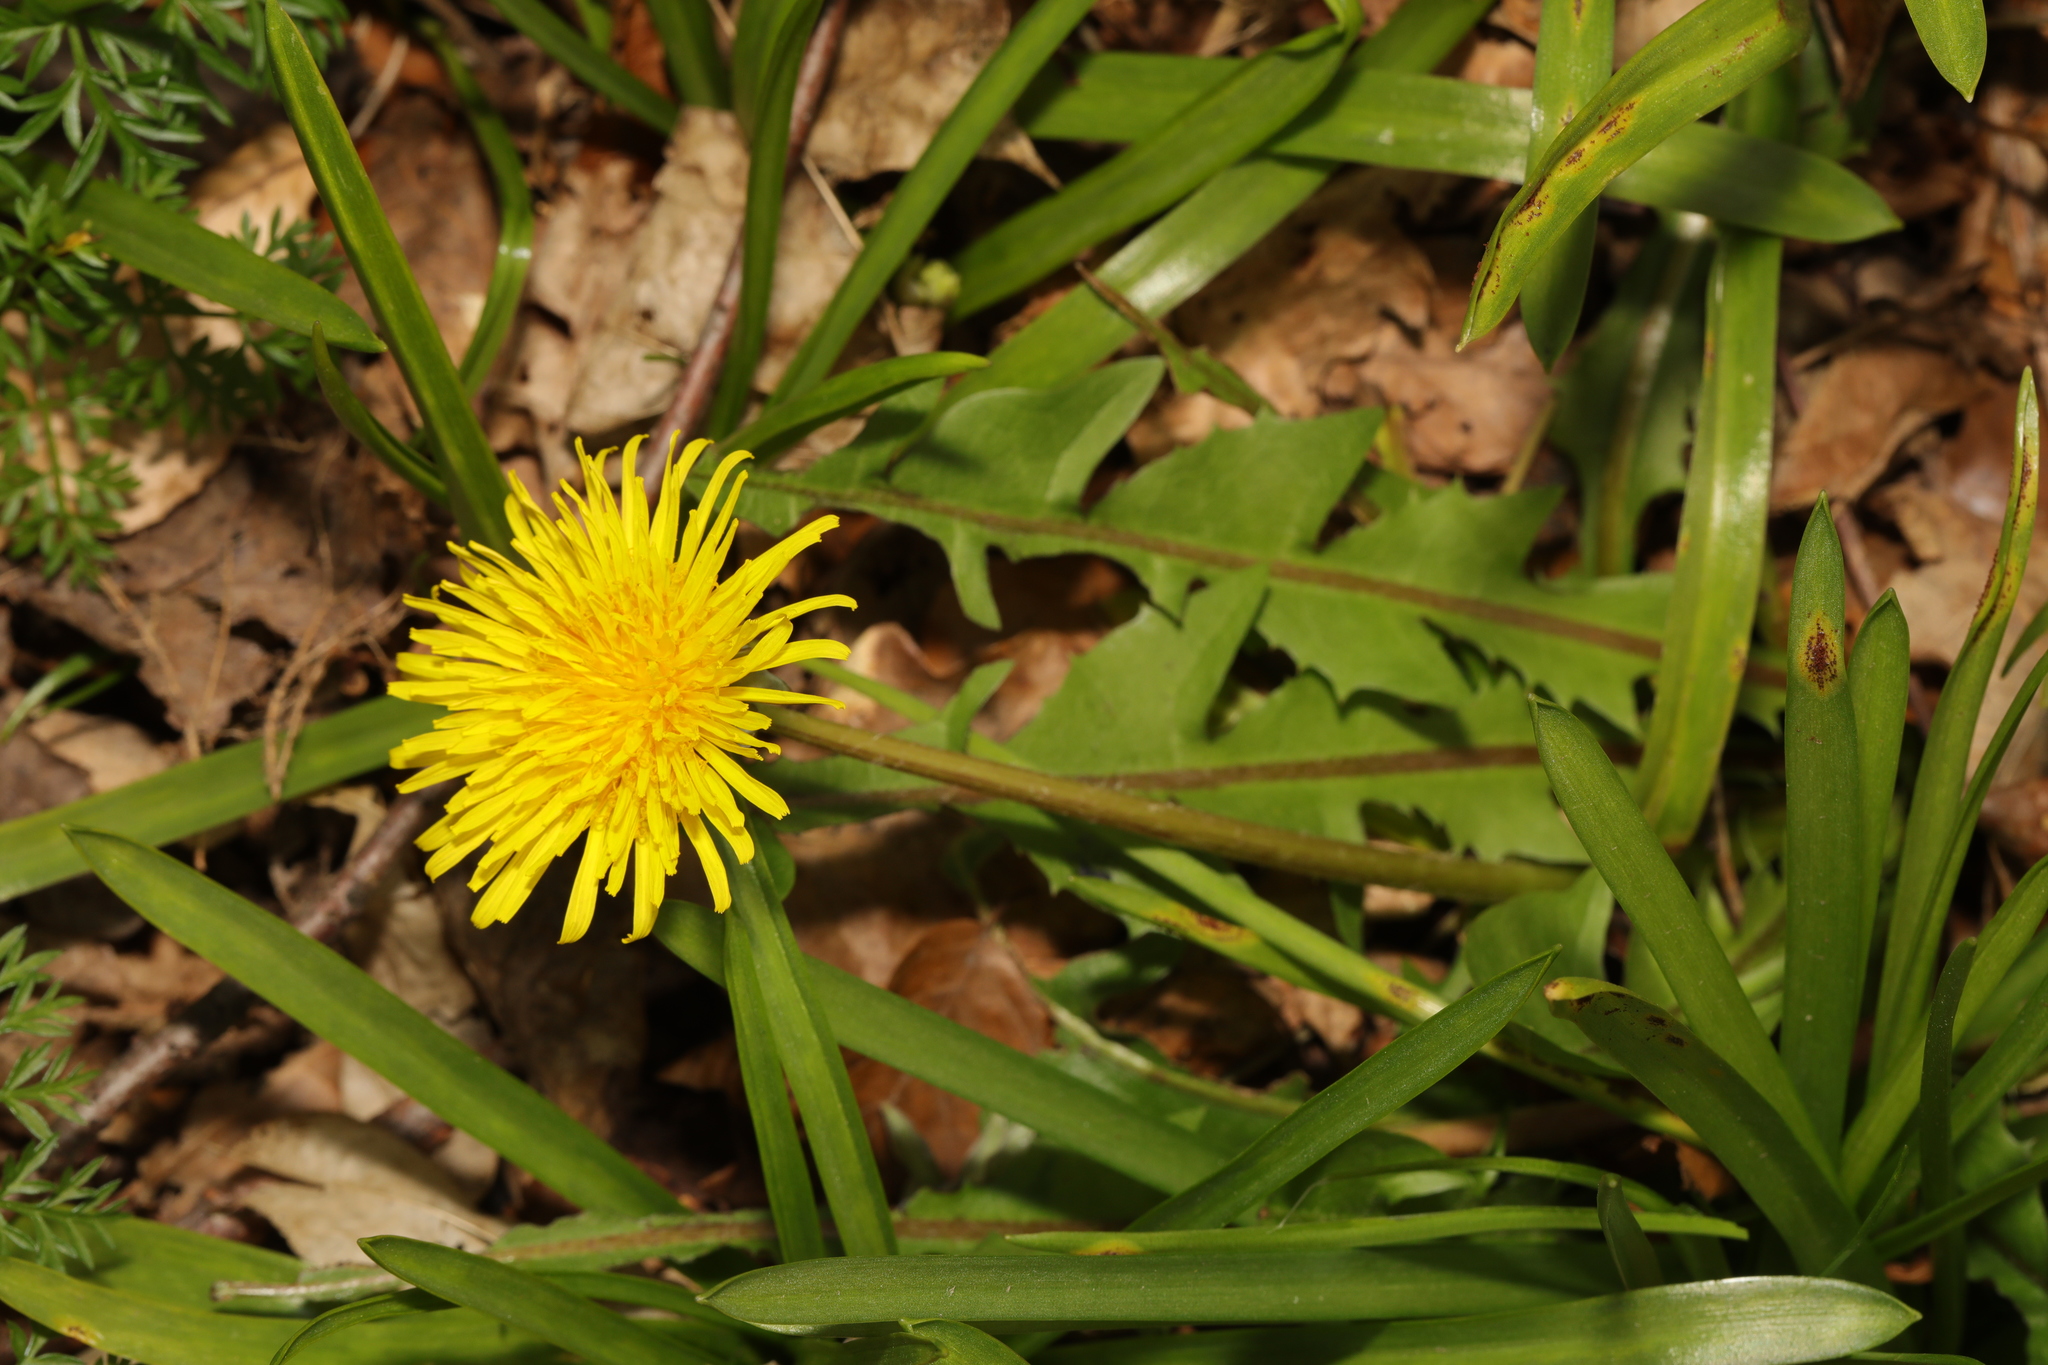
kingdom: Plantae
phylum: Tracheophyta
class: Magnoliopsida
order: Asterales
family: Asteraceae
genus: Taraxacum
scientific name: Taraxacum officinale
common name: Common dandelion
